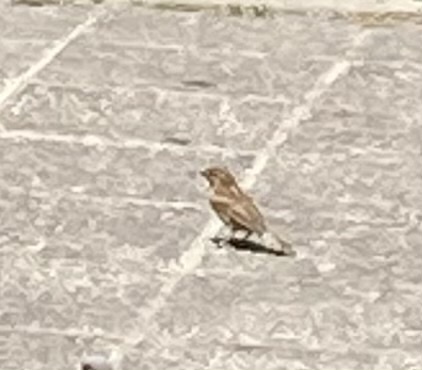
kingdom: Animalia
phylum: Chordata
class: Aves
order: Passeriformes
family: Passeridae
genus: Passer
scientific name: Passer domesticus
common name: House sparrow
